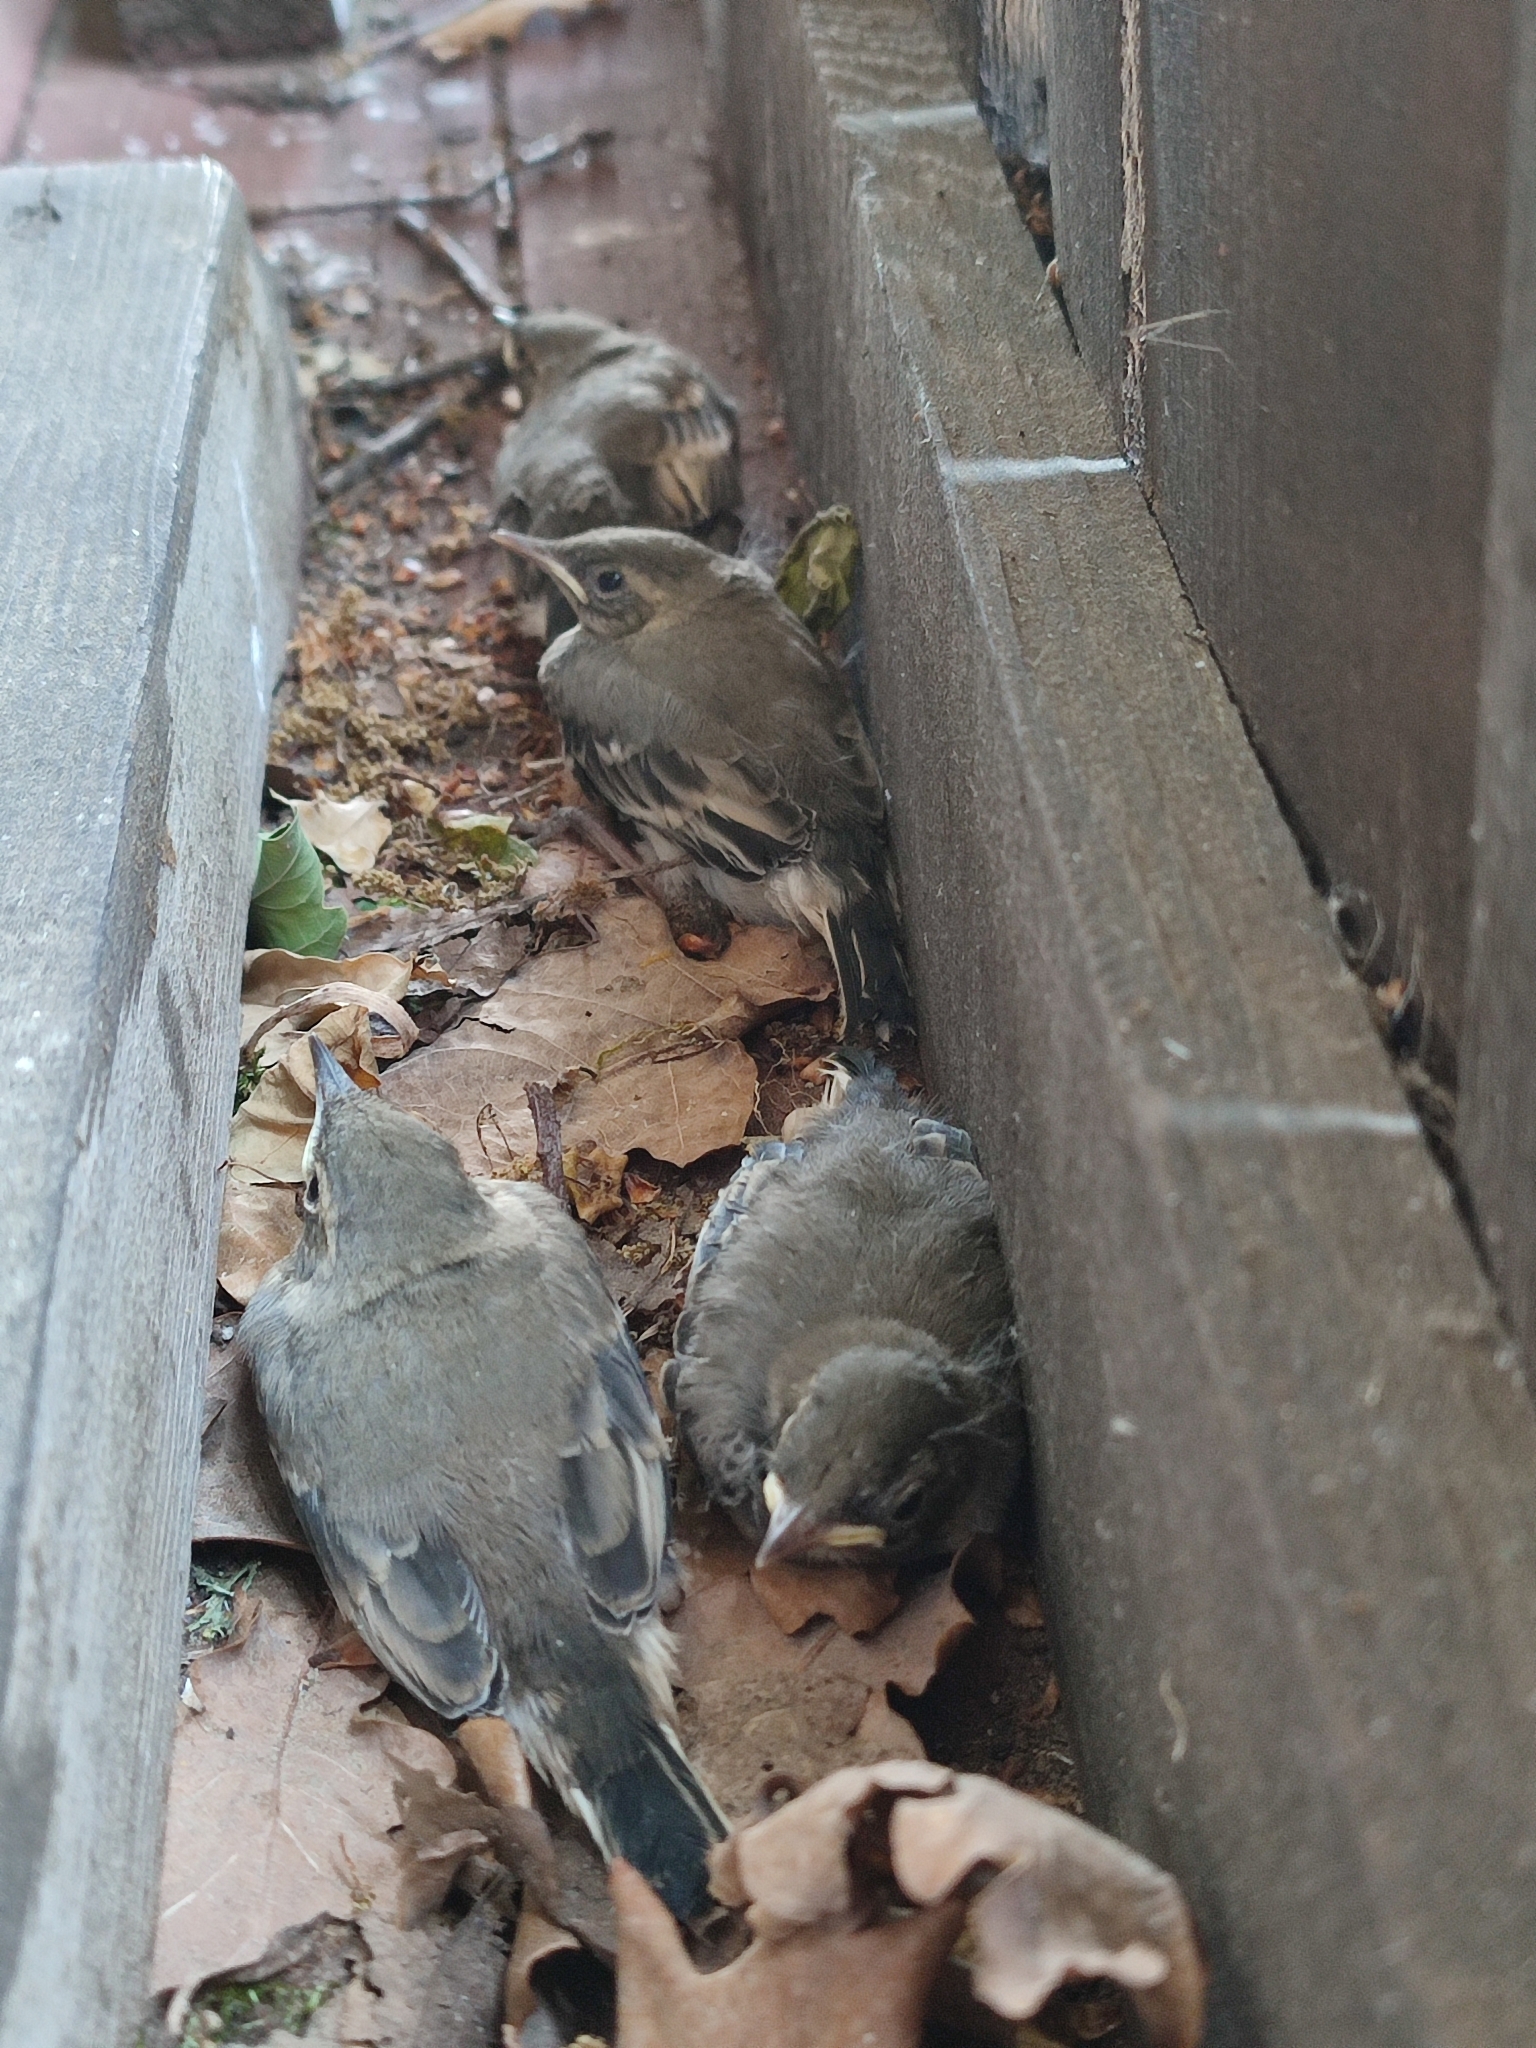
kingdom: Animalia
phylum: Chordata
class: Aves
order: Passeriformes
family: Motacillidae
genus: Motacilla
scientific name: Motacilla alba
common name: White wagtail
